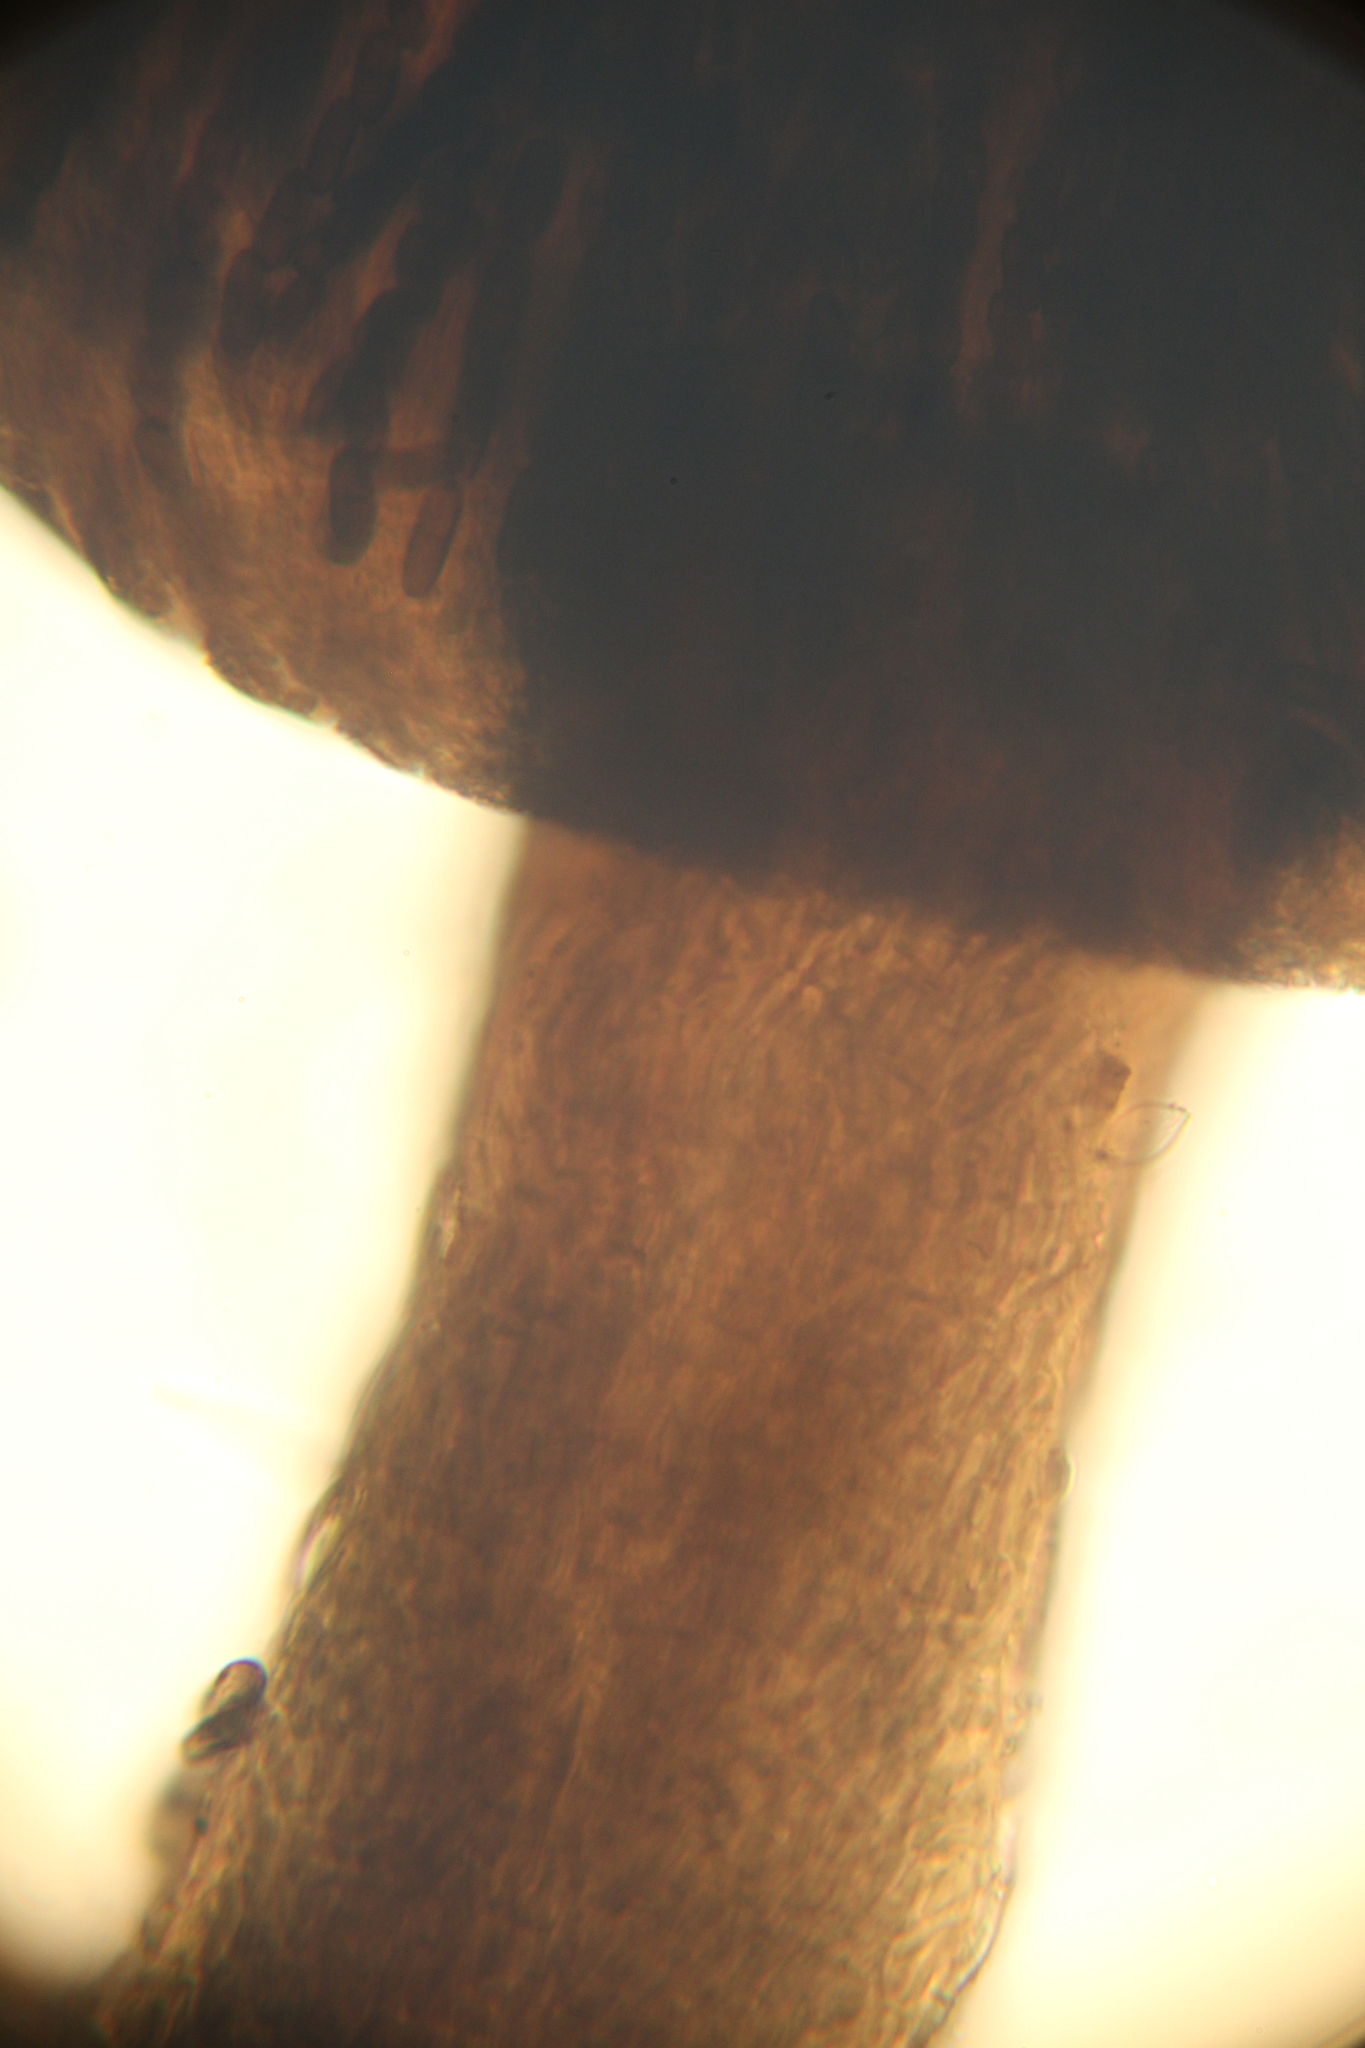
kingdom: Fungi
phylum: Ascomycota
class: Eurotiomycetes
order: Mycocaliciales
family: Mycocaliciaceae
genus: Phaeocalicium
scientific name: Phaeocalicium curtisii
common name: Sumac needles
